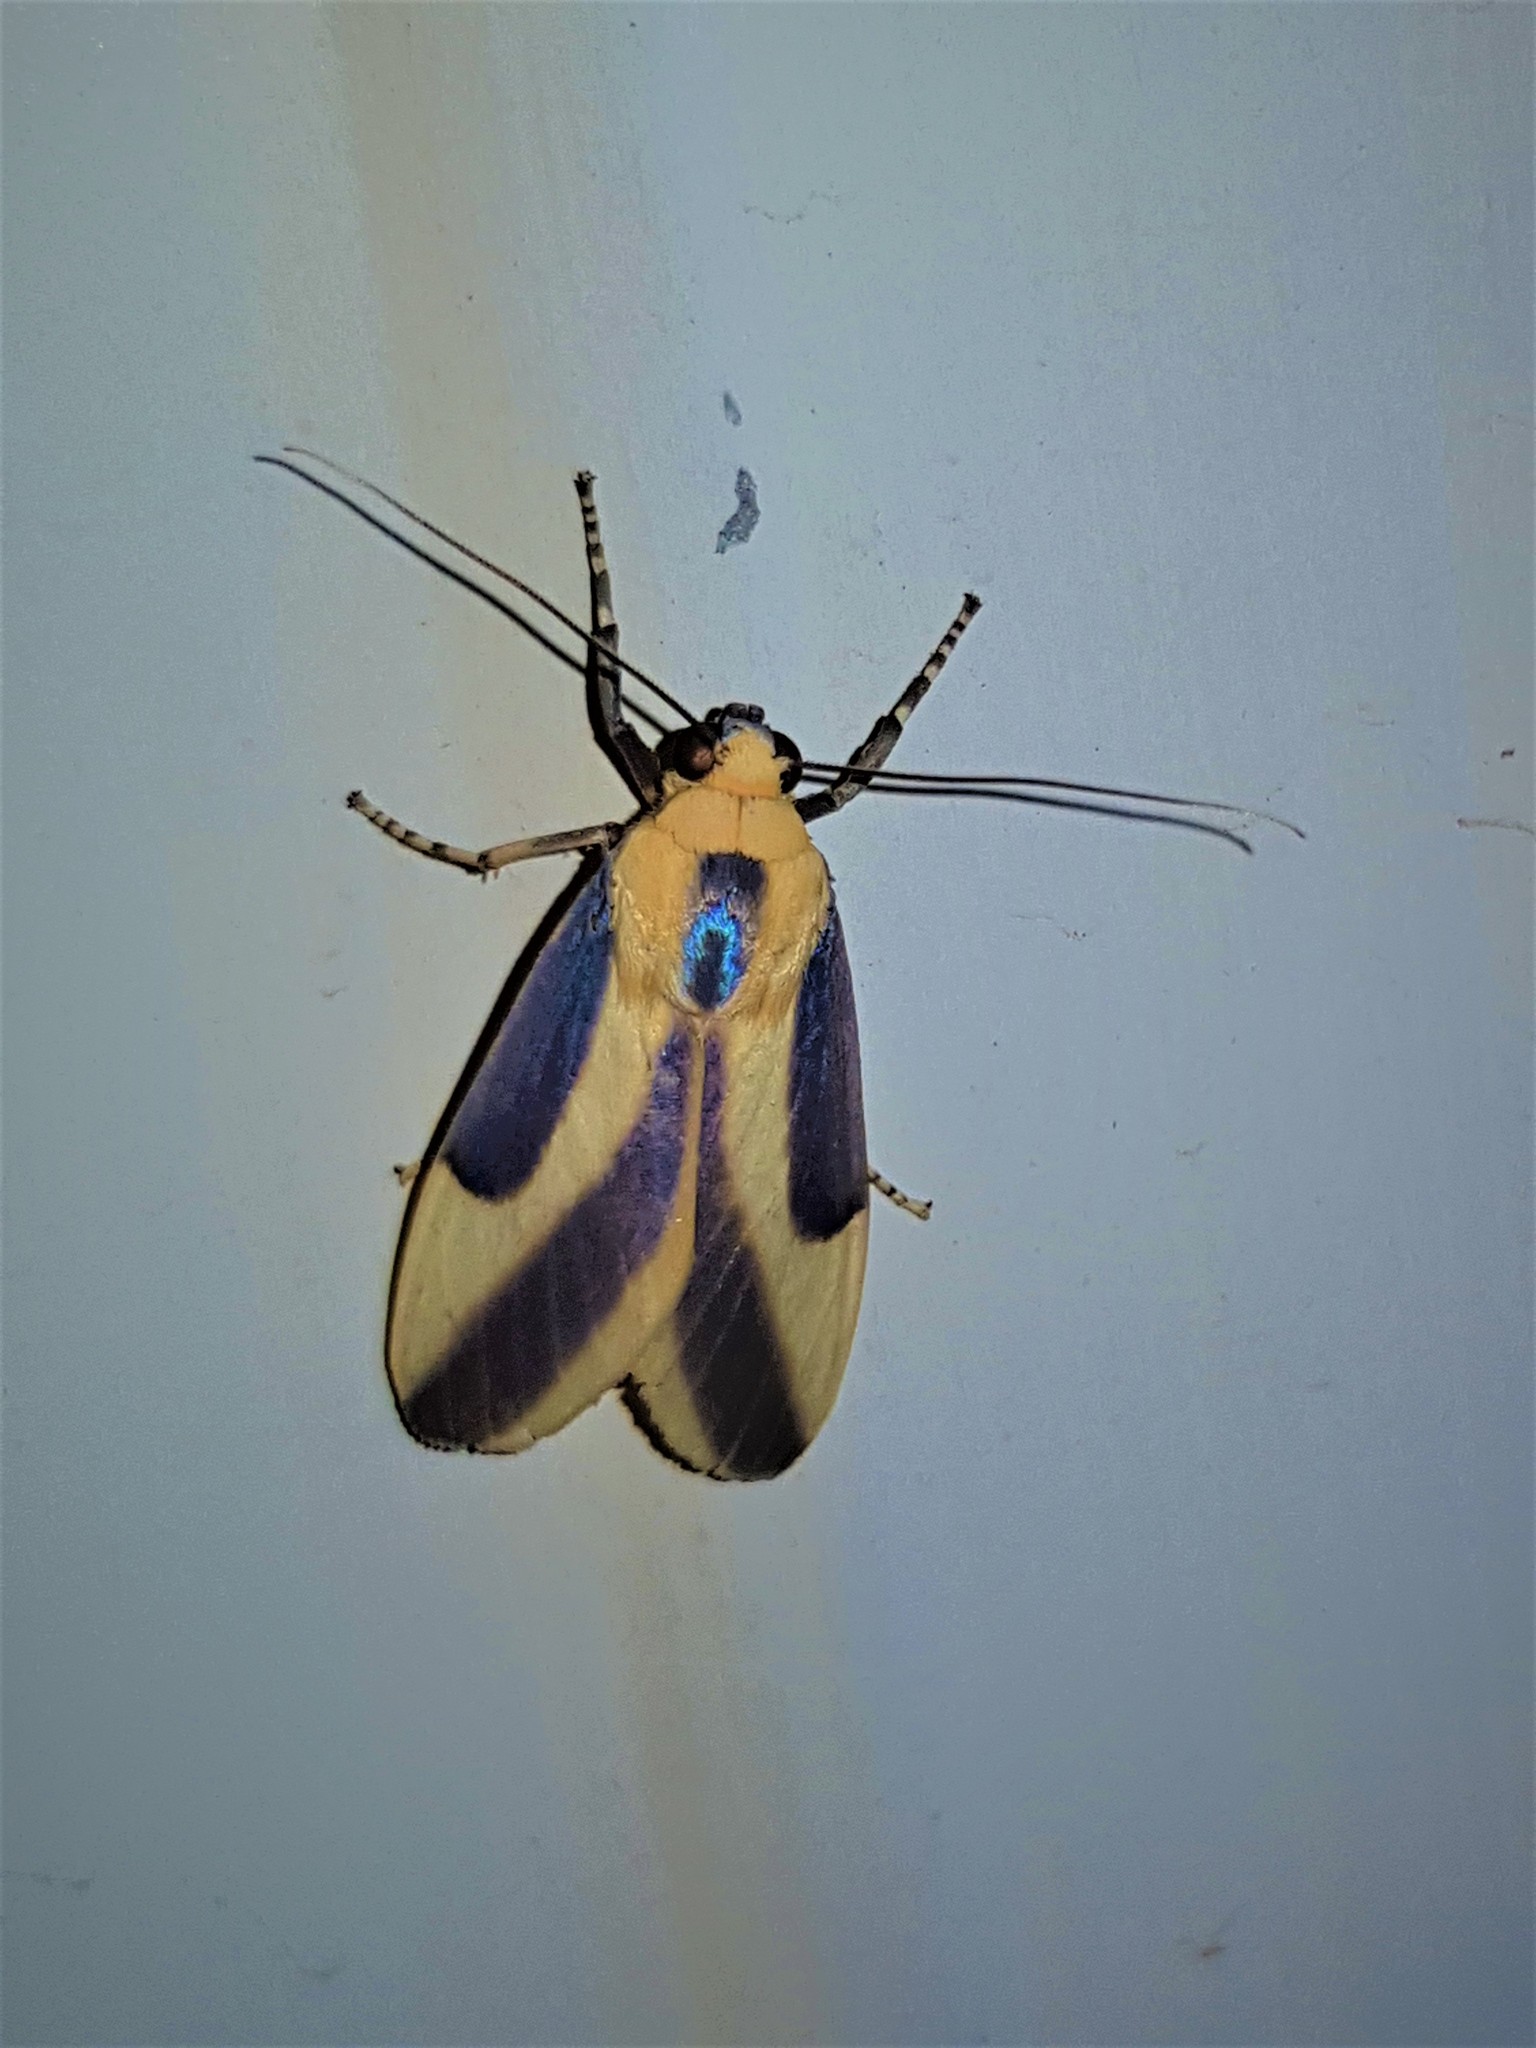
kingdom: Animalia
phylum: Arthropoda
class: Insecta
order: Lepidoptera
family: Erebidae
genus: Sutonocrea
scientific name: Sutonocrea lobifer
